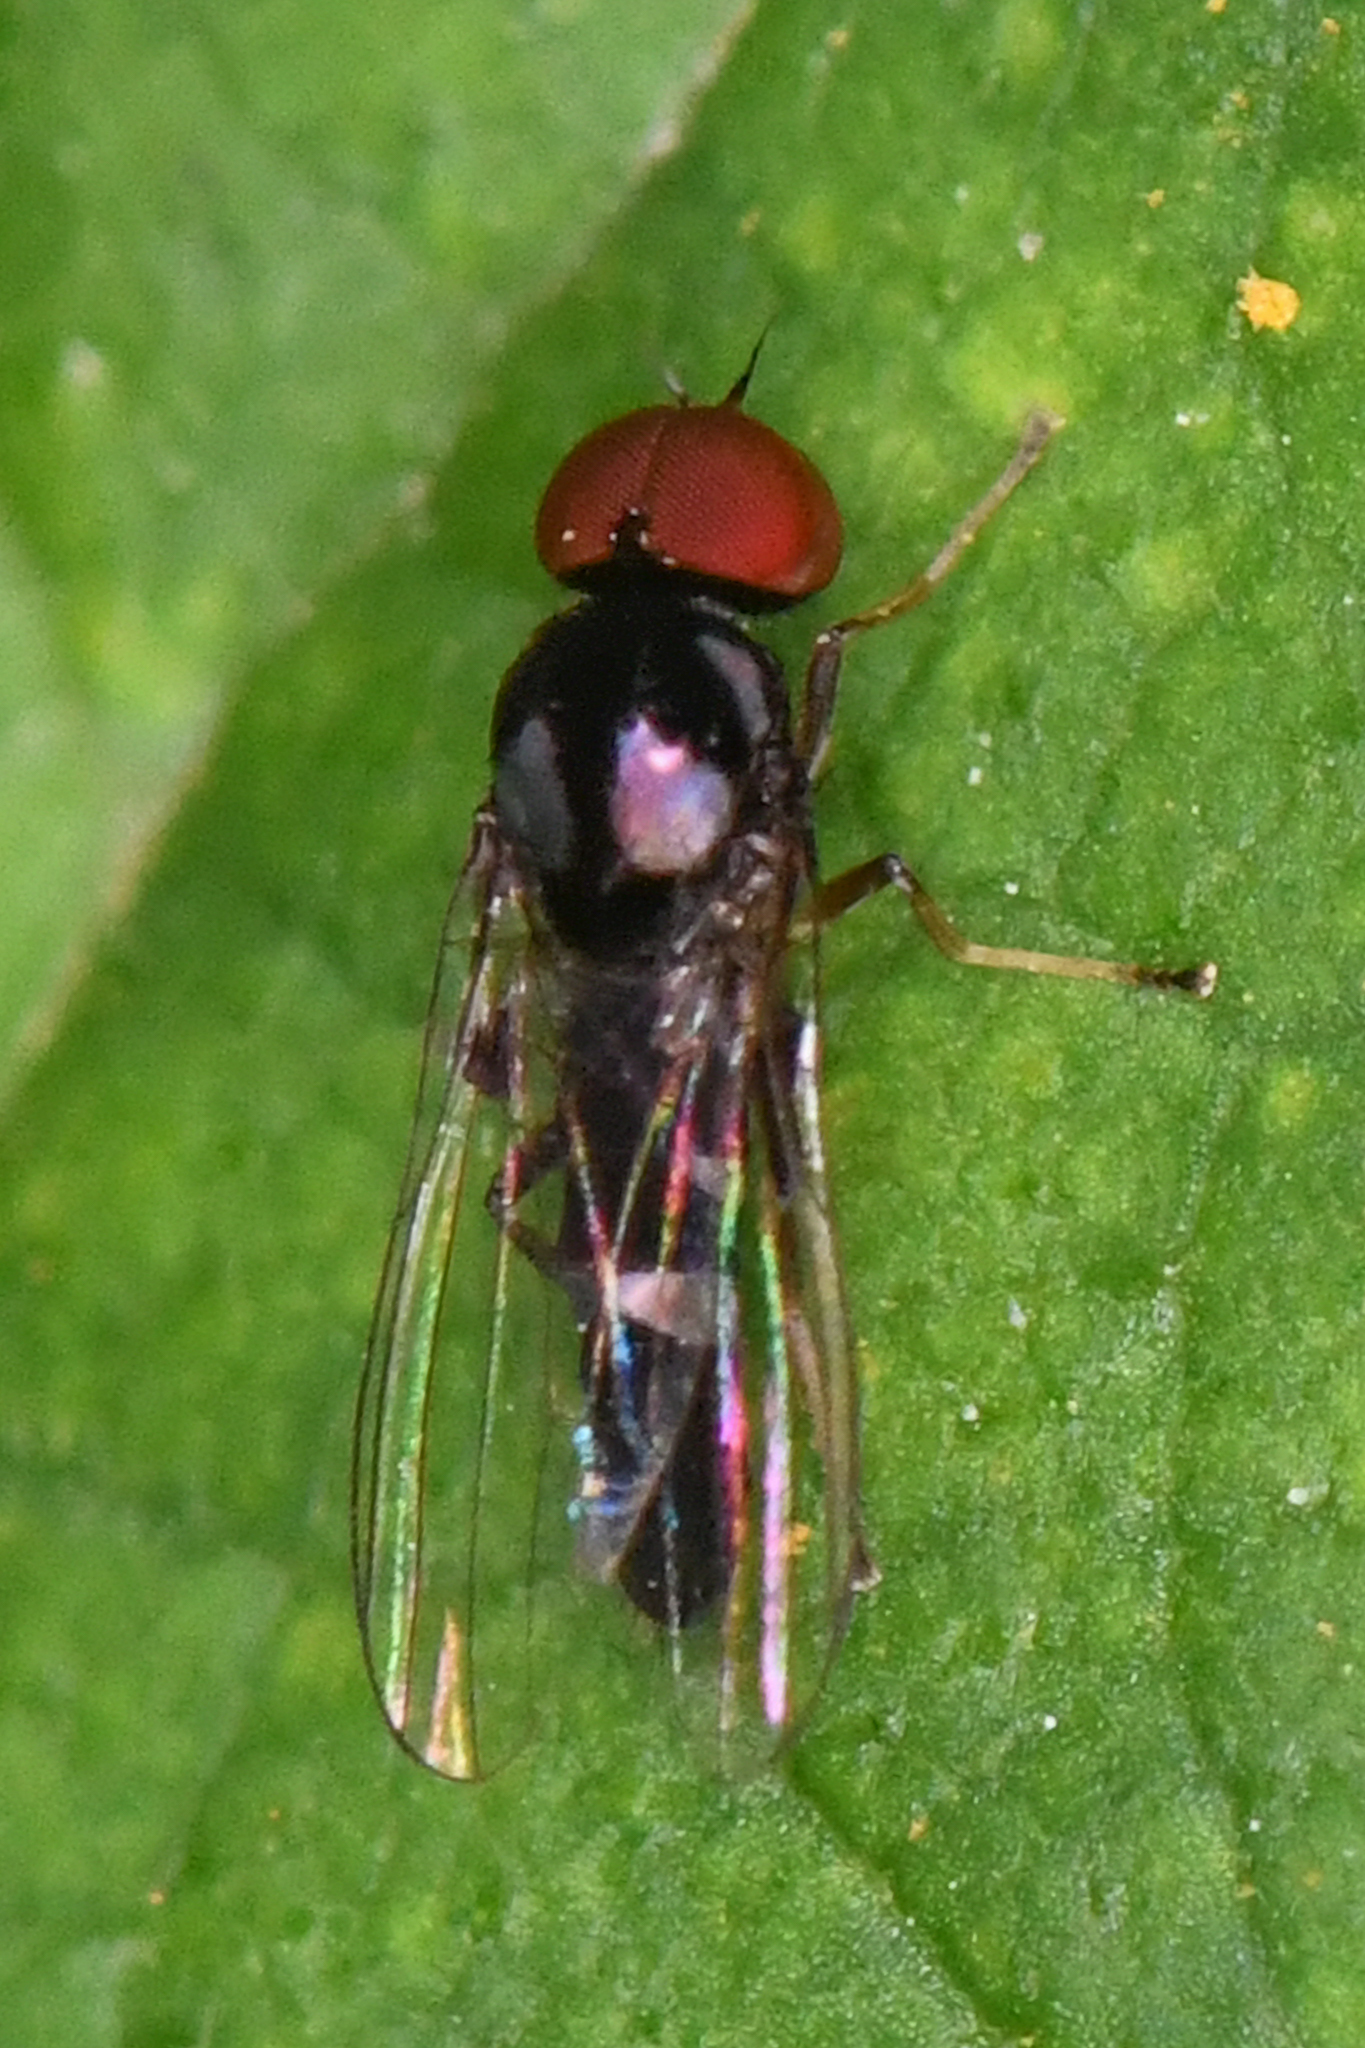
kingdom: Animalia
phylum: Arthropoda
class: Insecta
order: Diptera
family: Platypezidae
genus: Bertamyia
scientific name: Bertamyia notata
